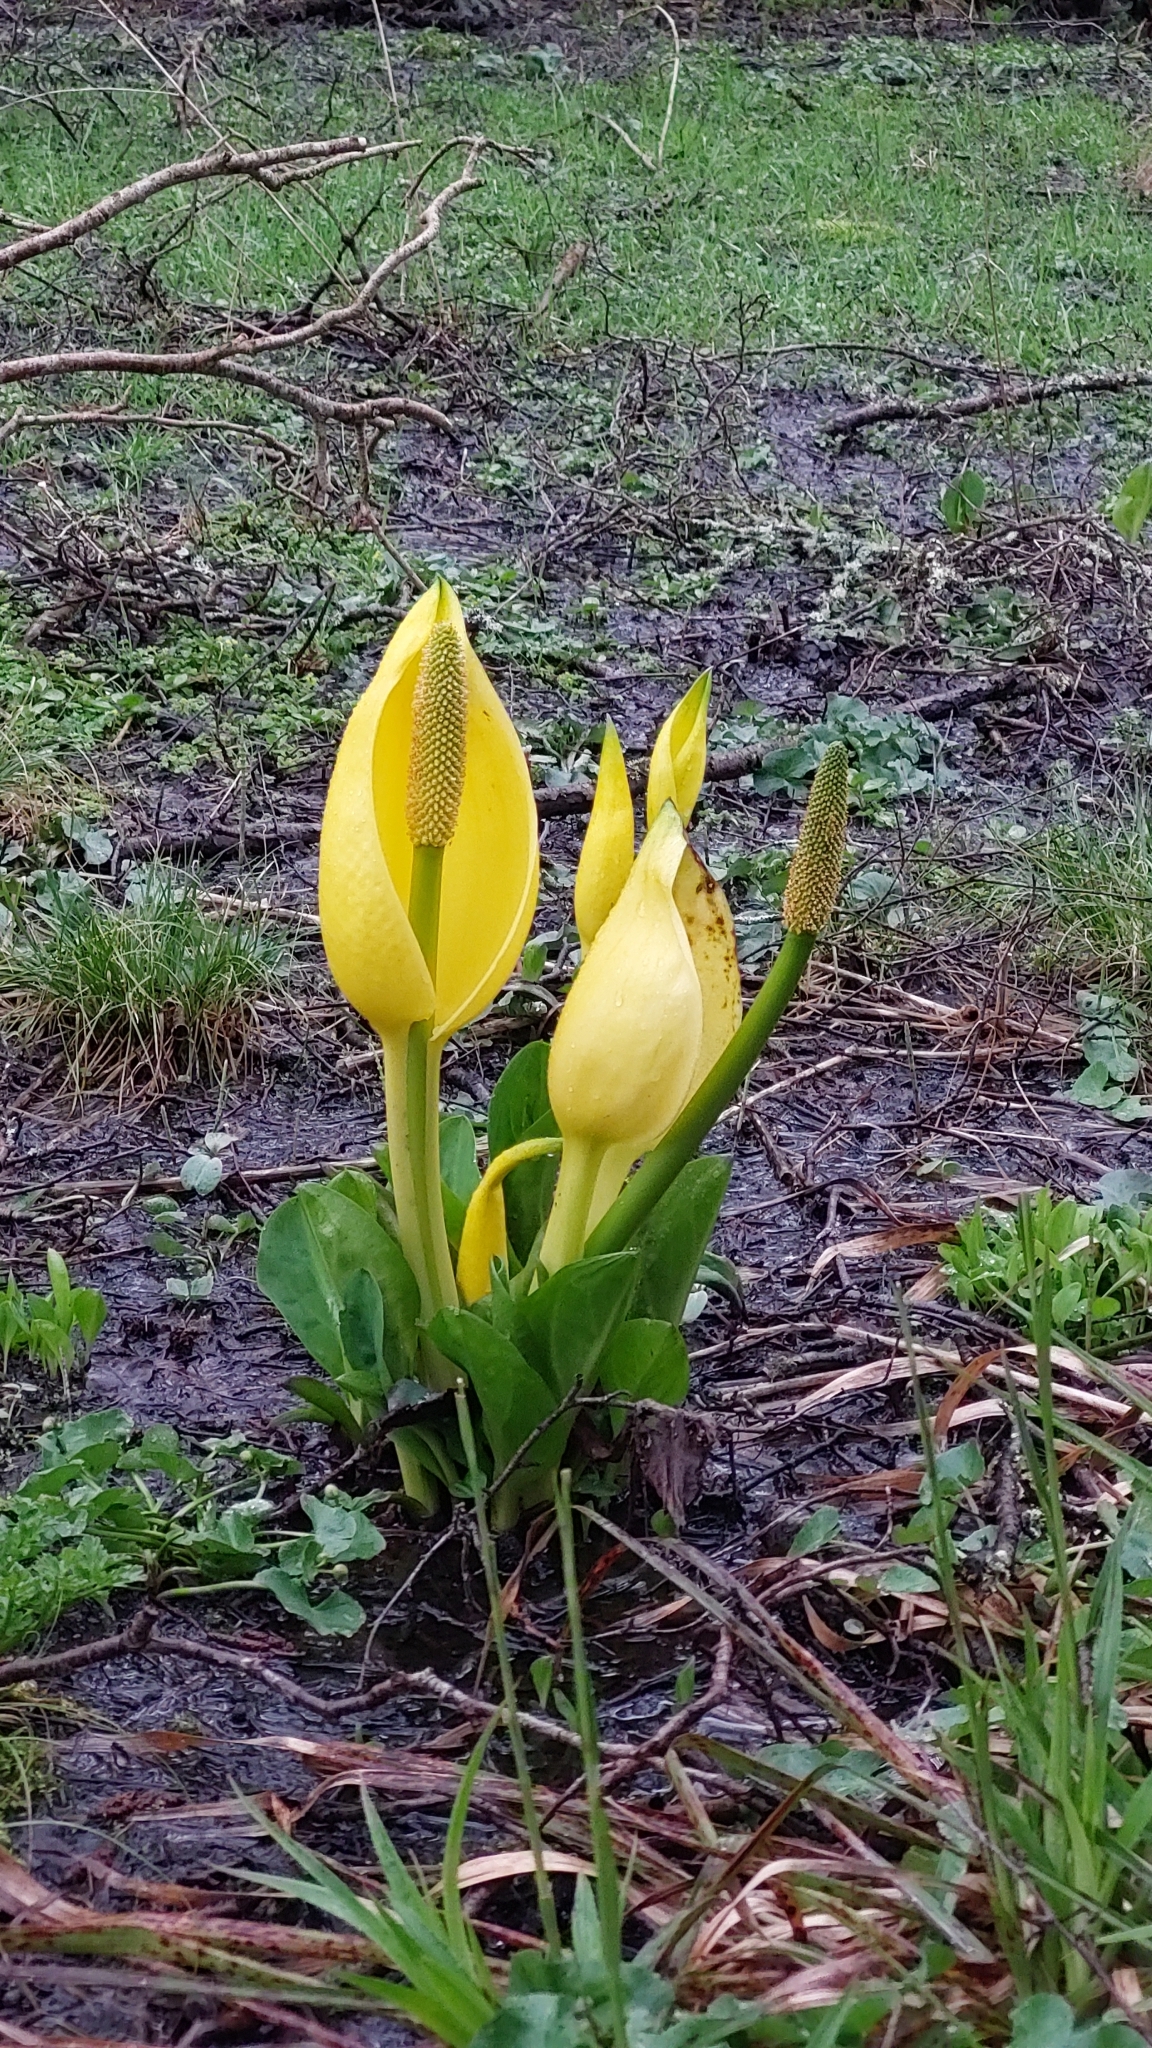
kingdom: Plantae
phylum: Tracheophyta
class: Liliopsida
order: Alismatales
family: Araceae
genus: Lysichiton
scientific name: Lysichiton americanus
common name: American skunk cabbage
